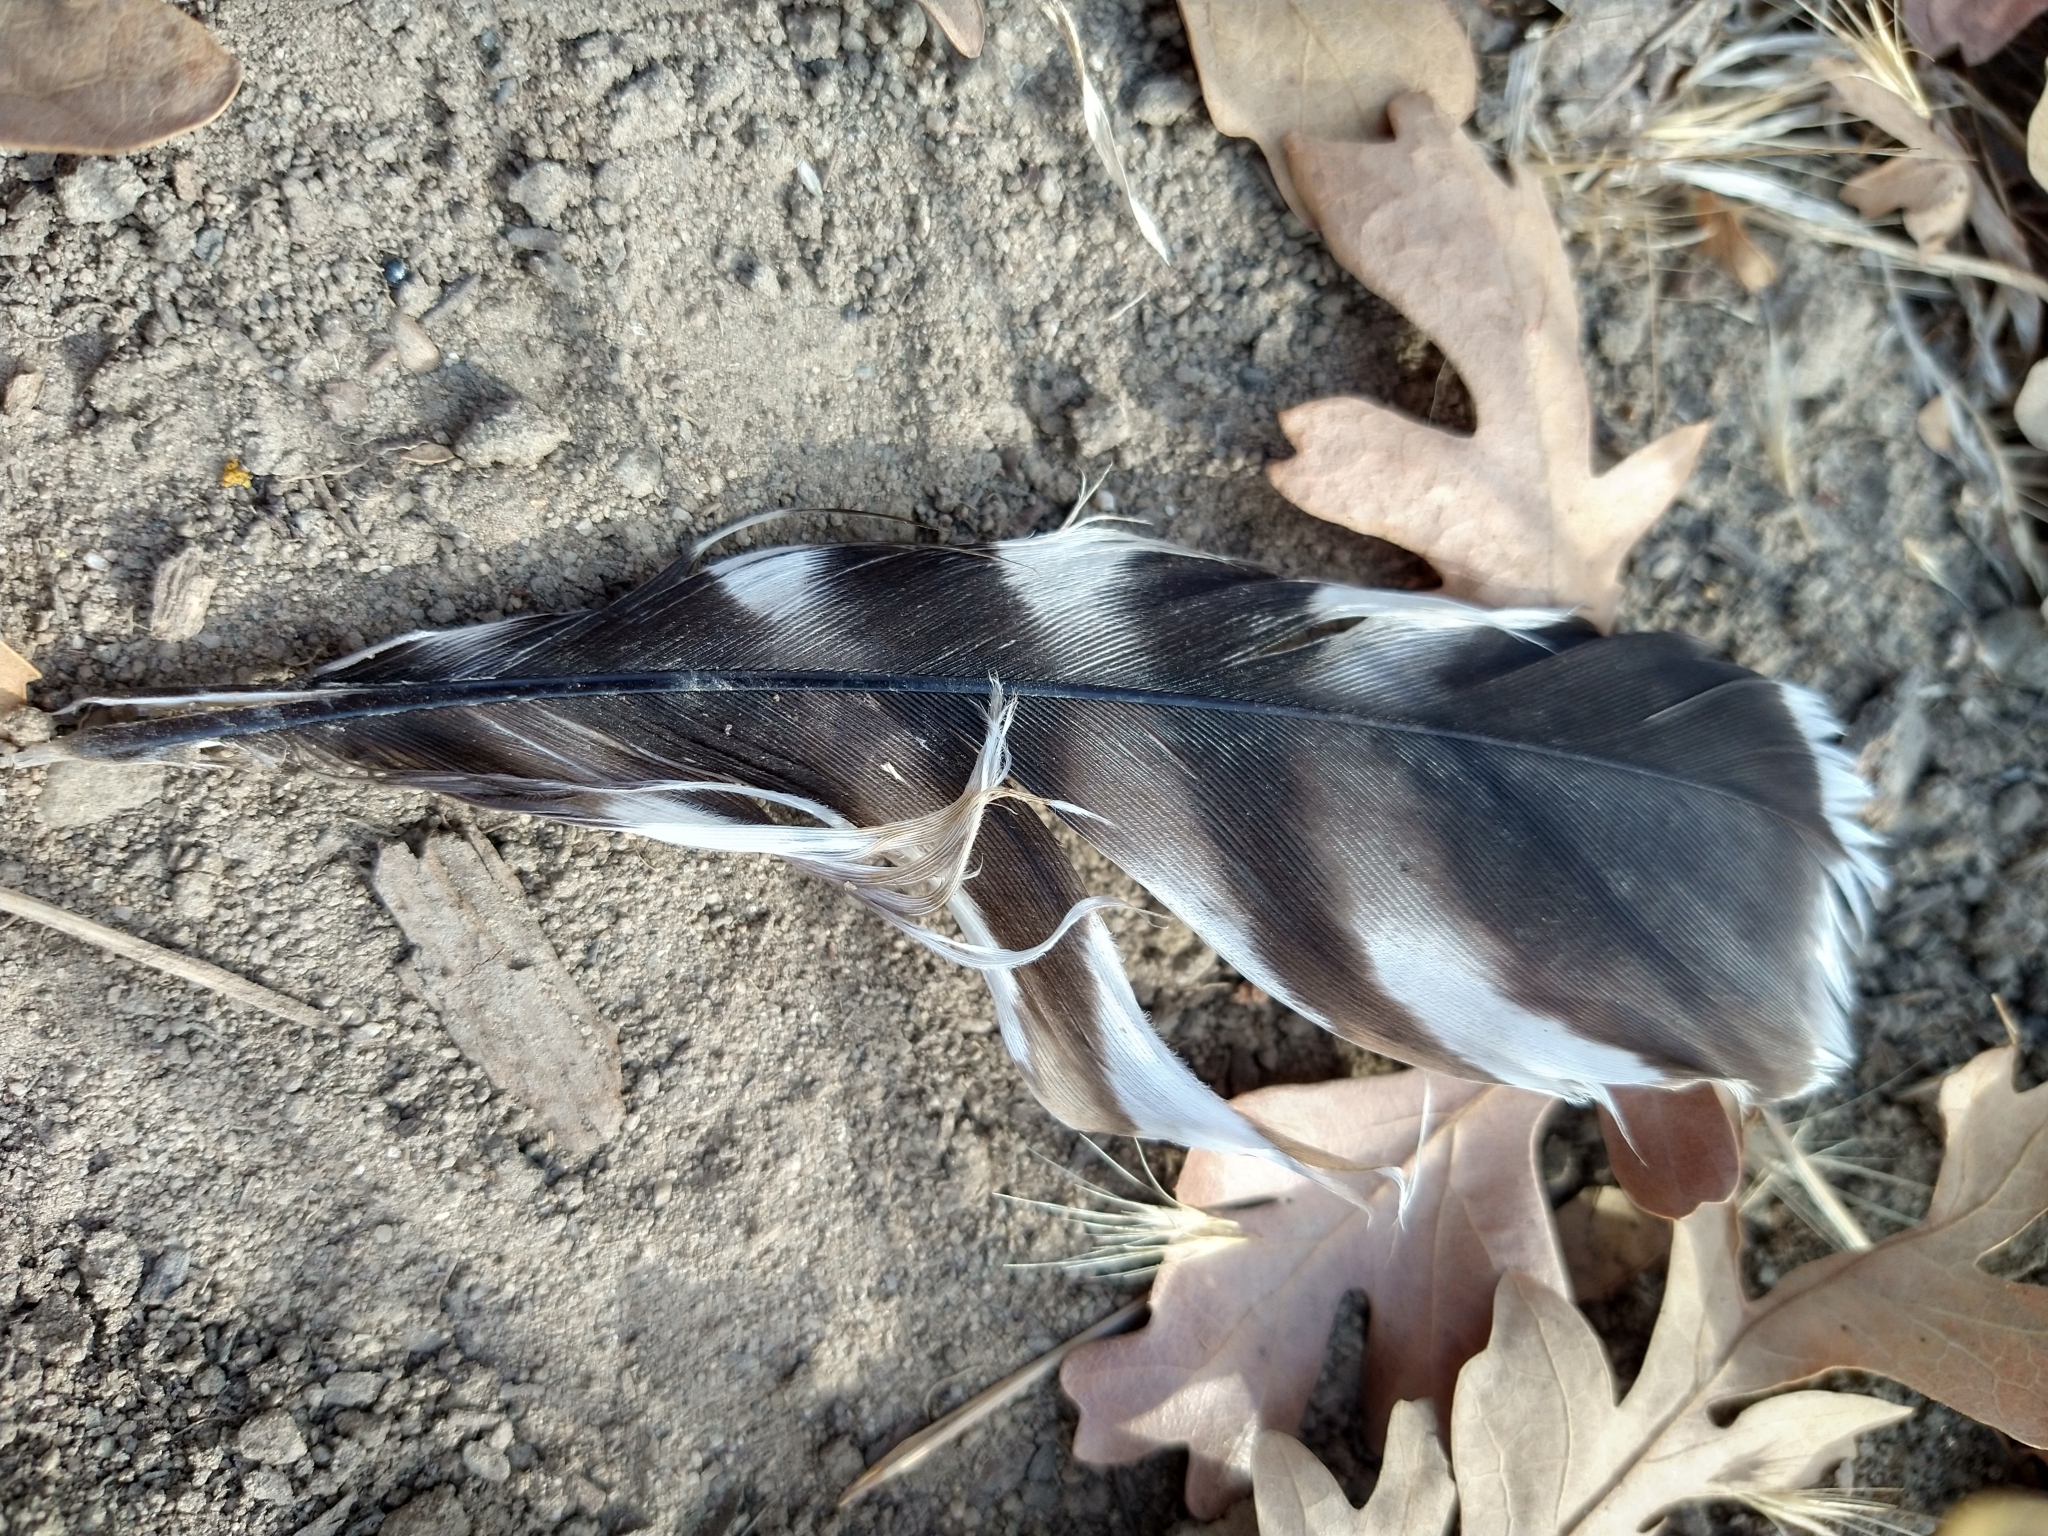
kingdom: Animalia
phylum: Chordata
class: Aves
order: Accipitriformes
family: Accipitridae
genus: Buteo
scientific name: Buteo lineatus
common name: Red-shouldered hawk
